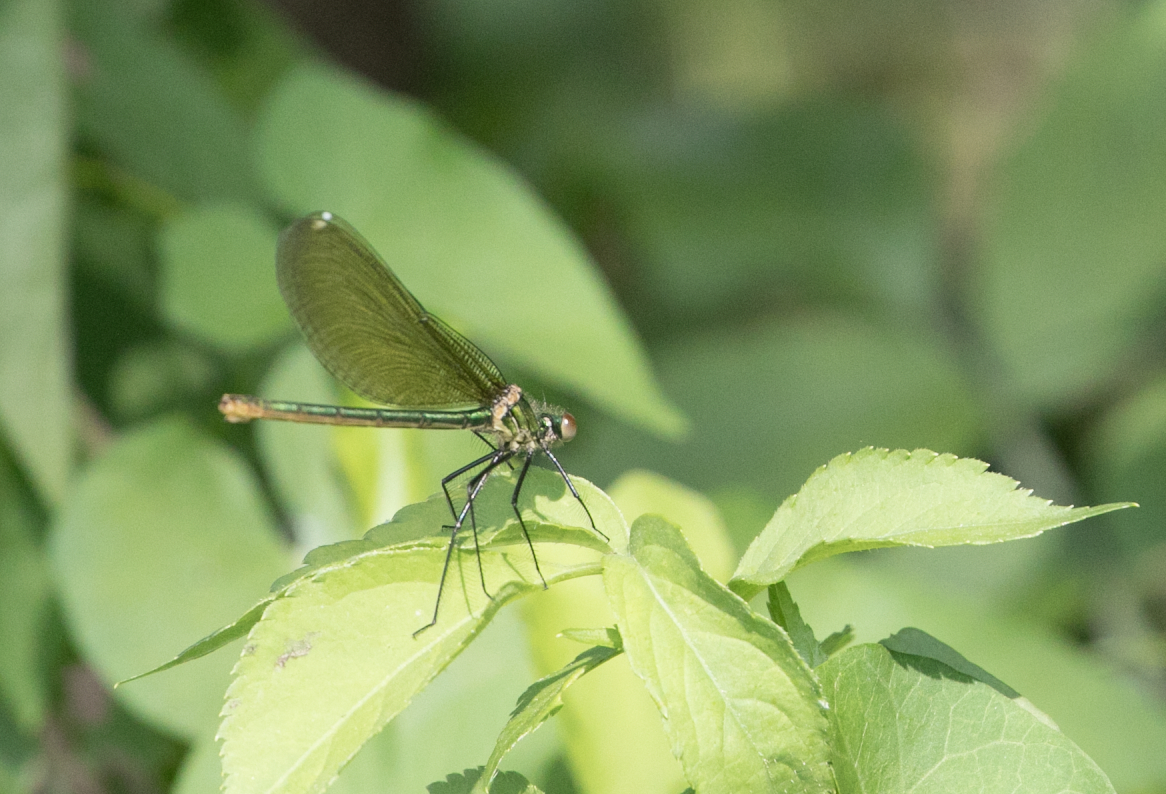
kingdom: Animalia
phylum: Arthropoda
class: Insecta
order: Odonata
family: Calopterygidae
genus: Calopteryx
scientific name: Calopteryx splendens
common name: Banded demoiselle
